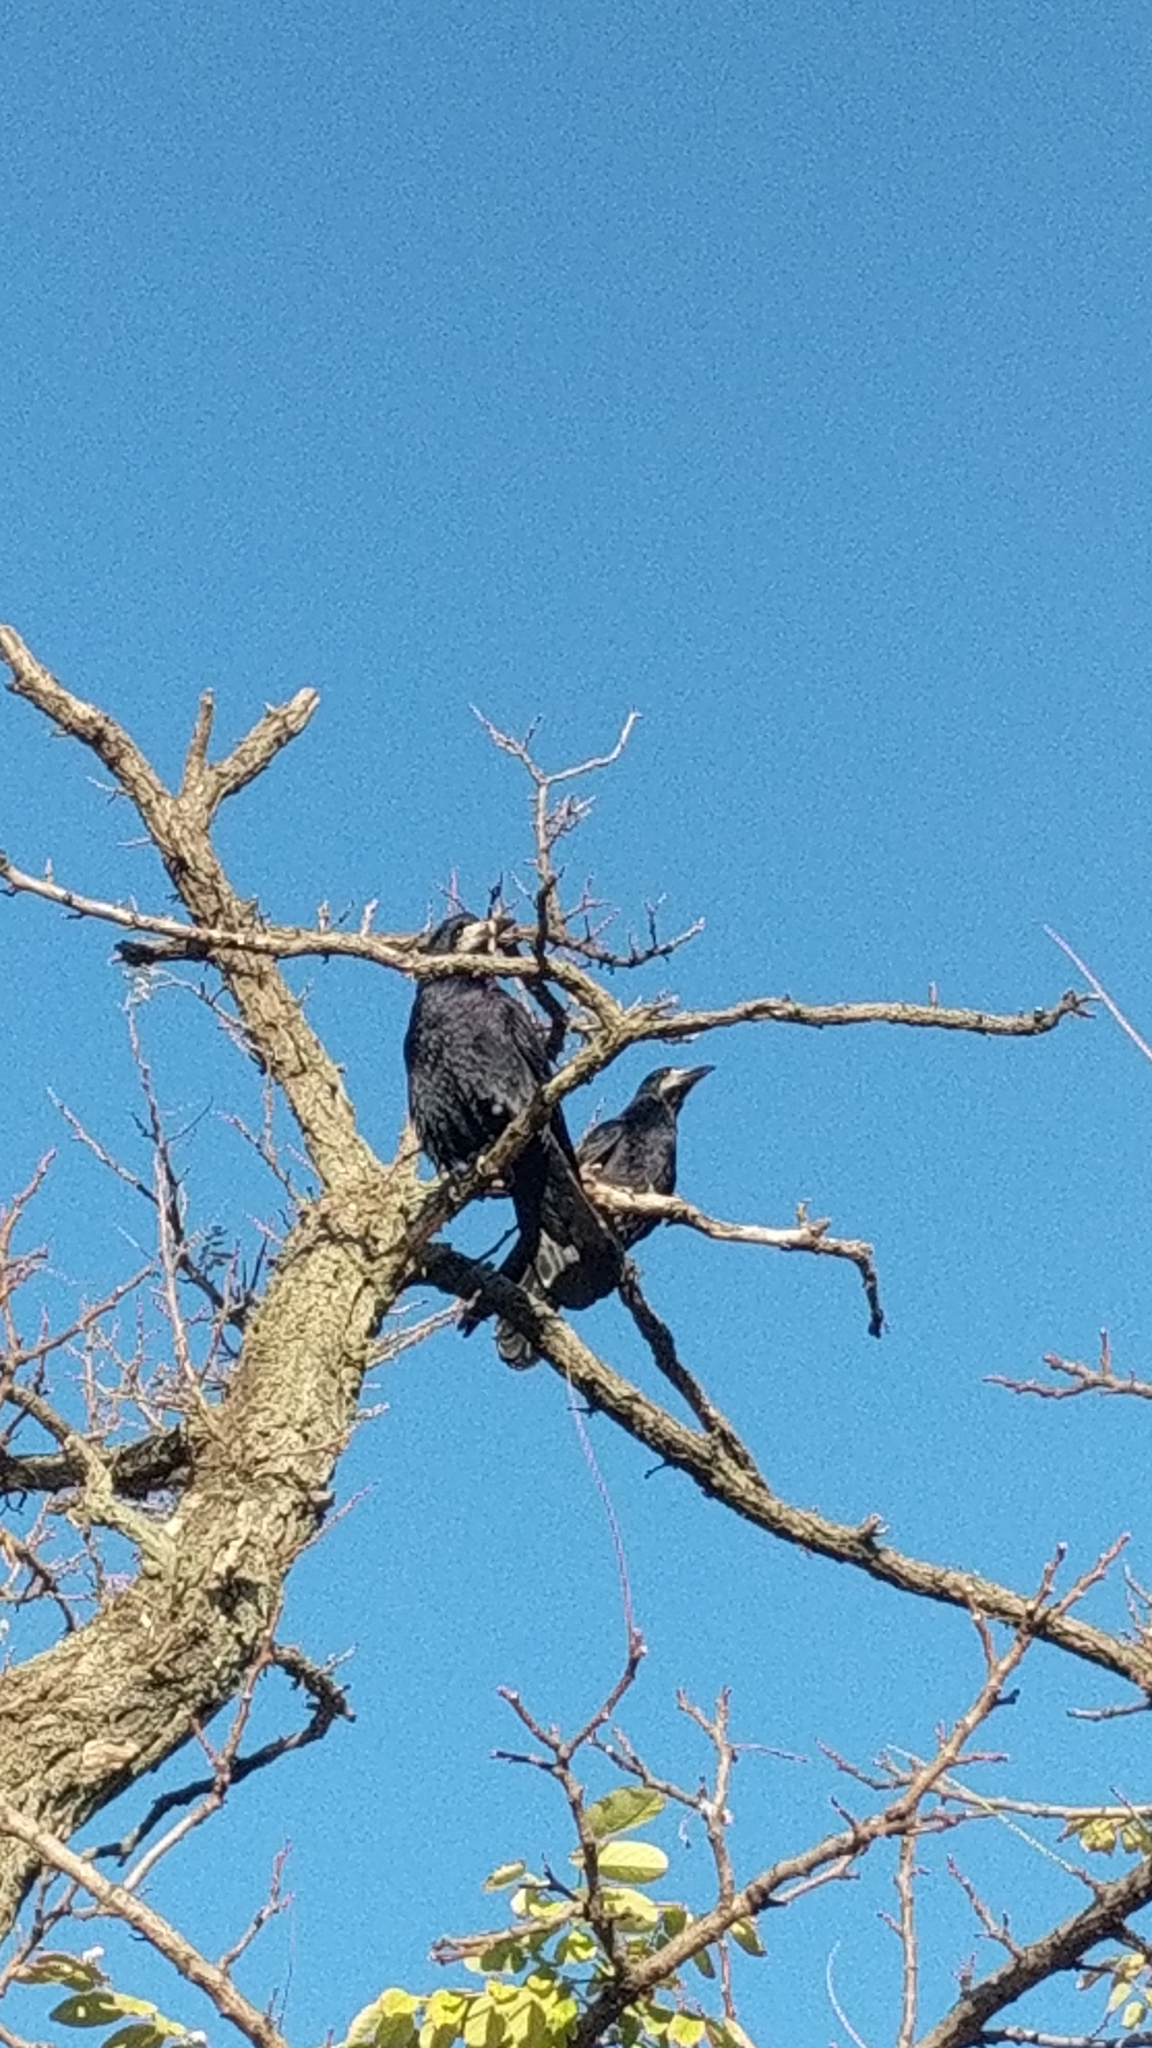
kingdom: Animalia
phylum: Chordata
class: Aves
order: Passeriformes
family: Corvidae
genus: Corvus
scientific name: Corvus frugilegus
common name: Rook
